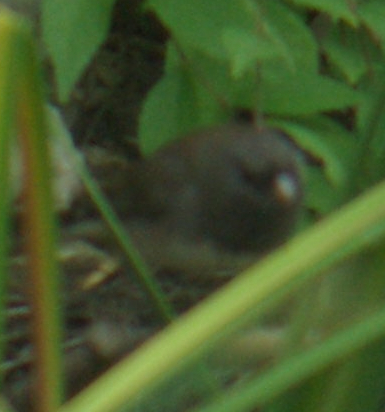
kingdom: Animalia
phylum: Chordata
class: Aves
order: Passeriformes
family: Passerellidae
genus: Junco
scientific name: Junco hyemalis
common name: Dark-eyed junco
